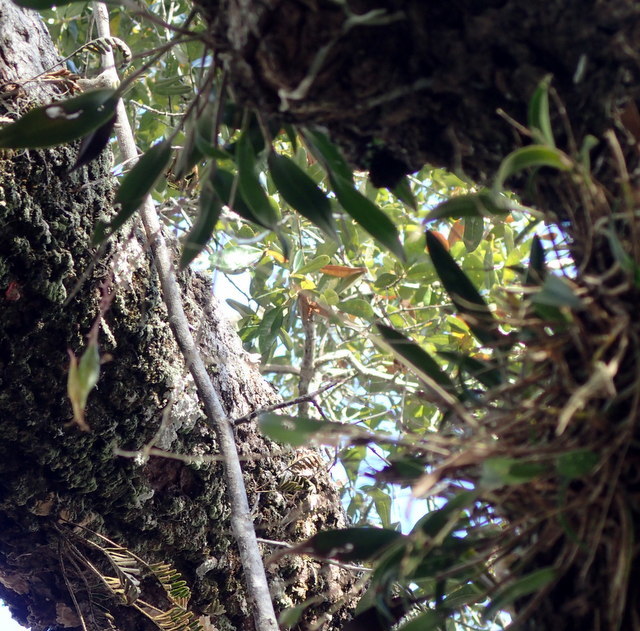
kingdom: Plantae
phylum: Tracheophyta
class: Liliopsida
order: Asparagales
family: Orchidaceae
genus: Epidendrum
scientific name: Epidendrum conopseum
